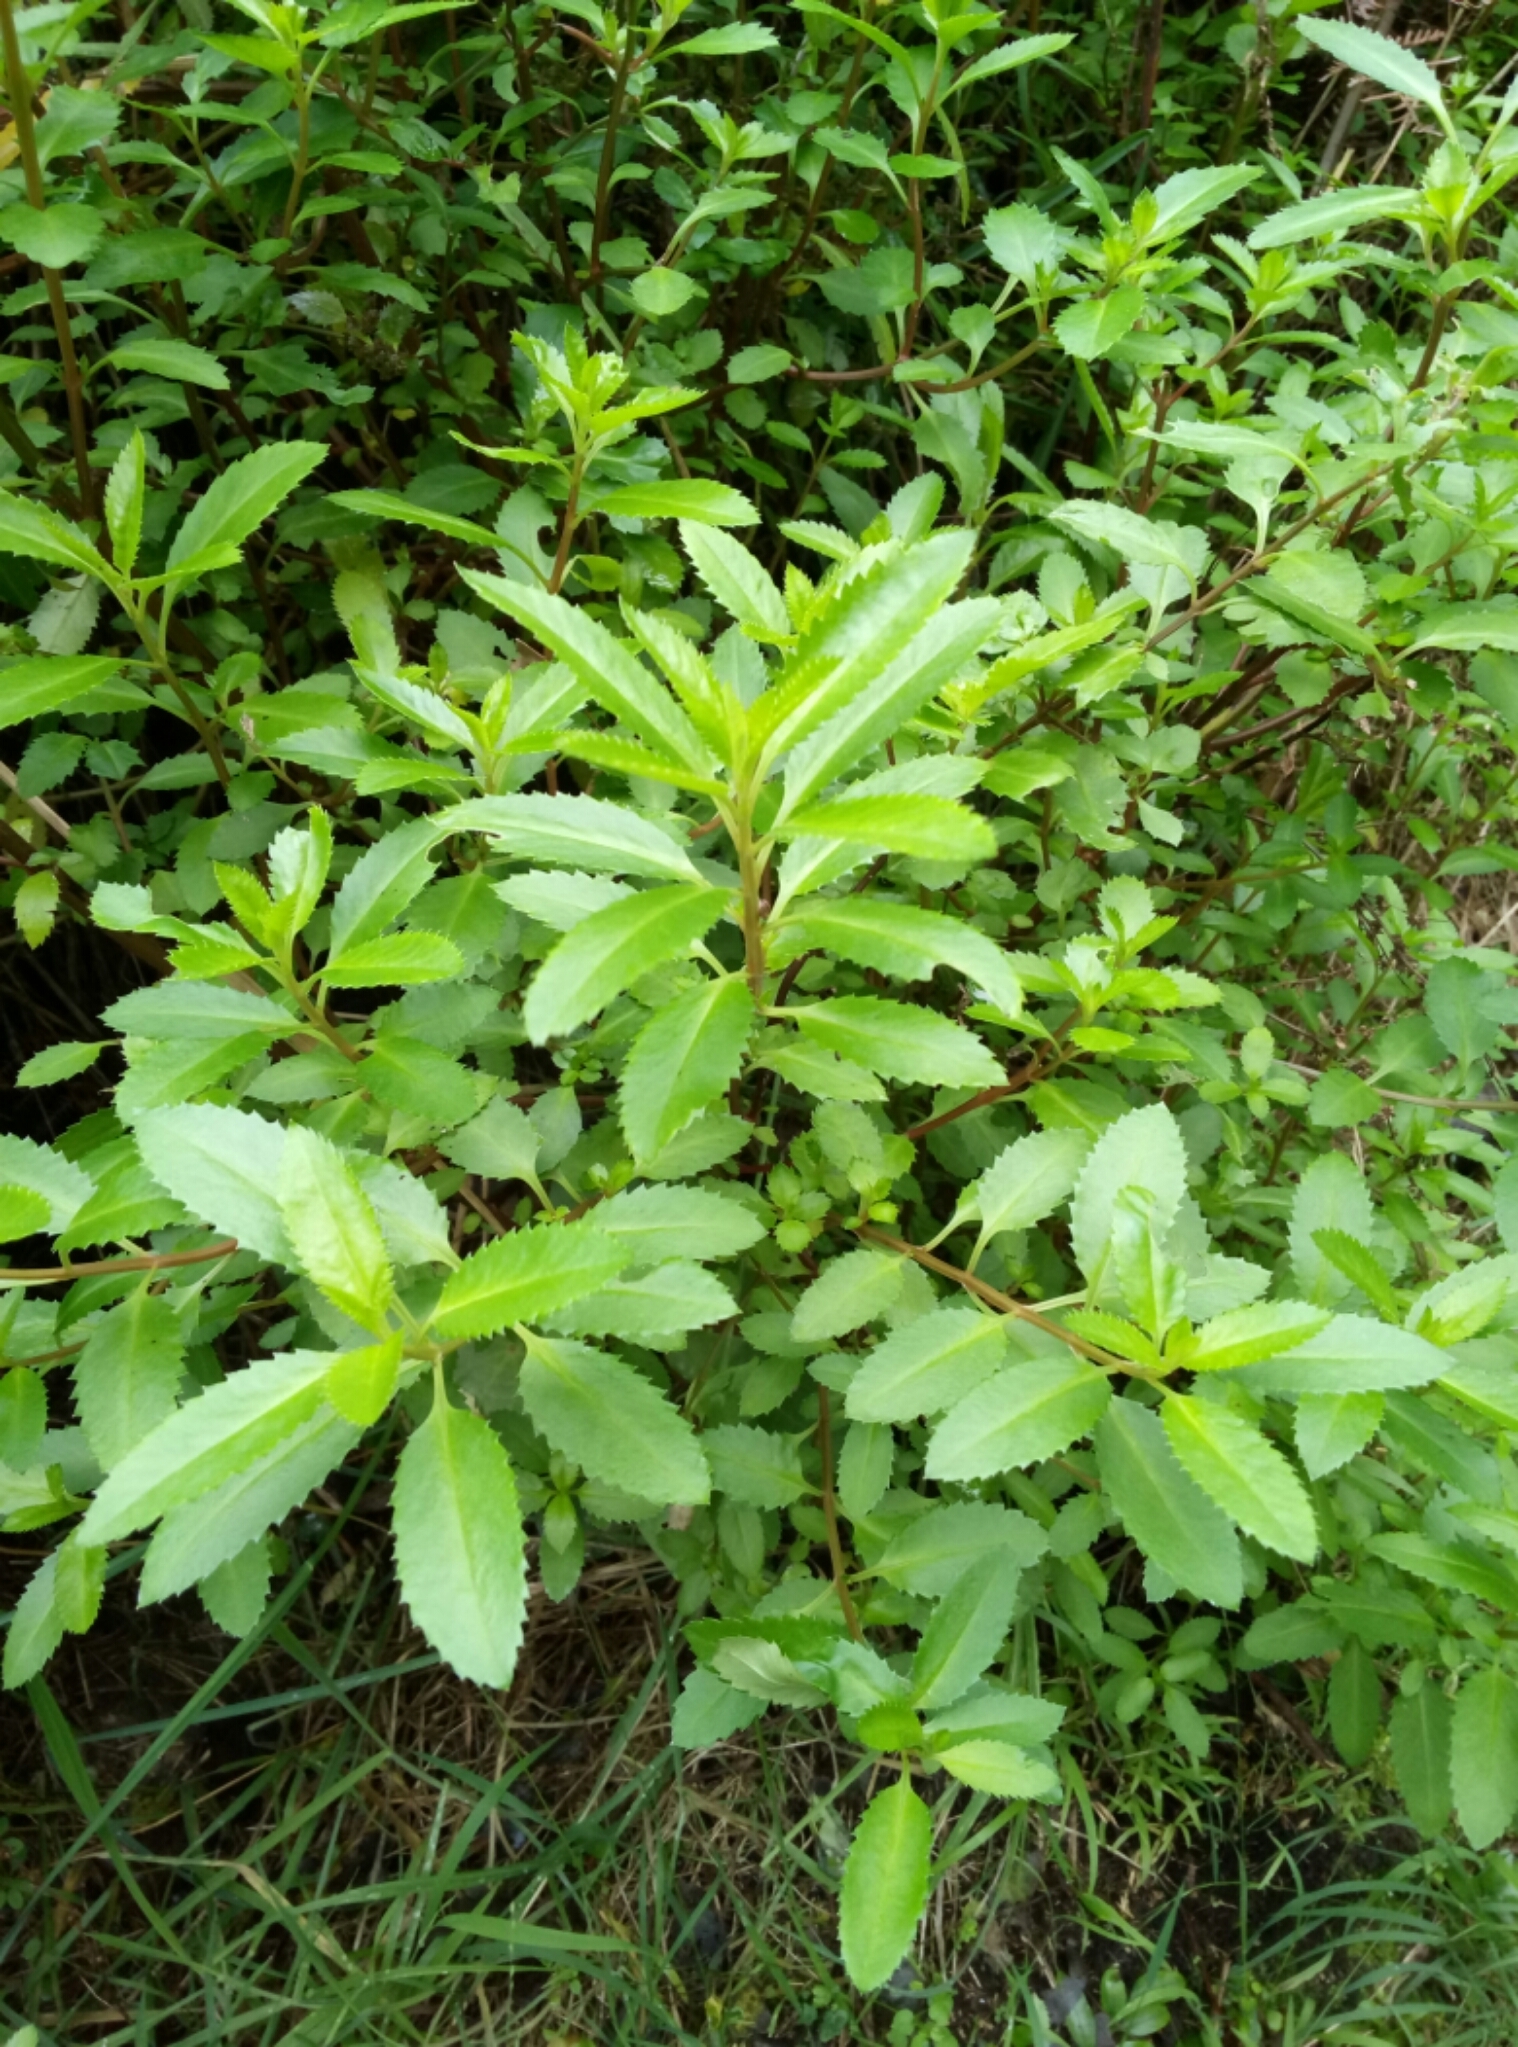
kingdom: Plantae
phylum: Tracheophyta
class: Magnoliopsida
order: Saxifragales
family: Haloragaceae
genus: Haloragis
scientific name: Haloragis erecta
